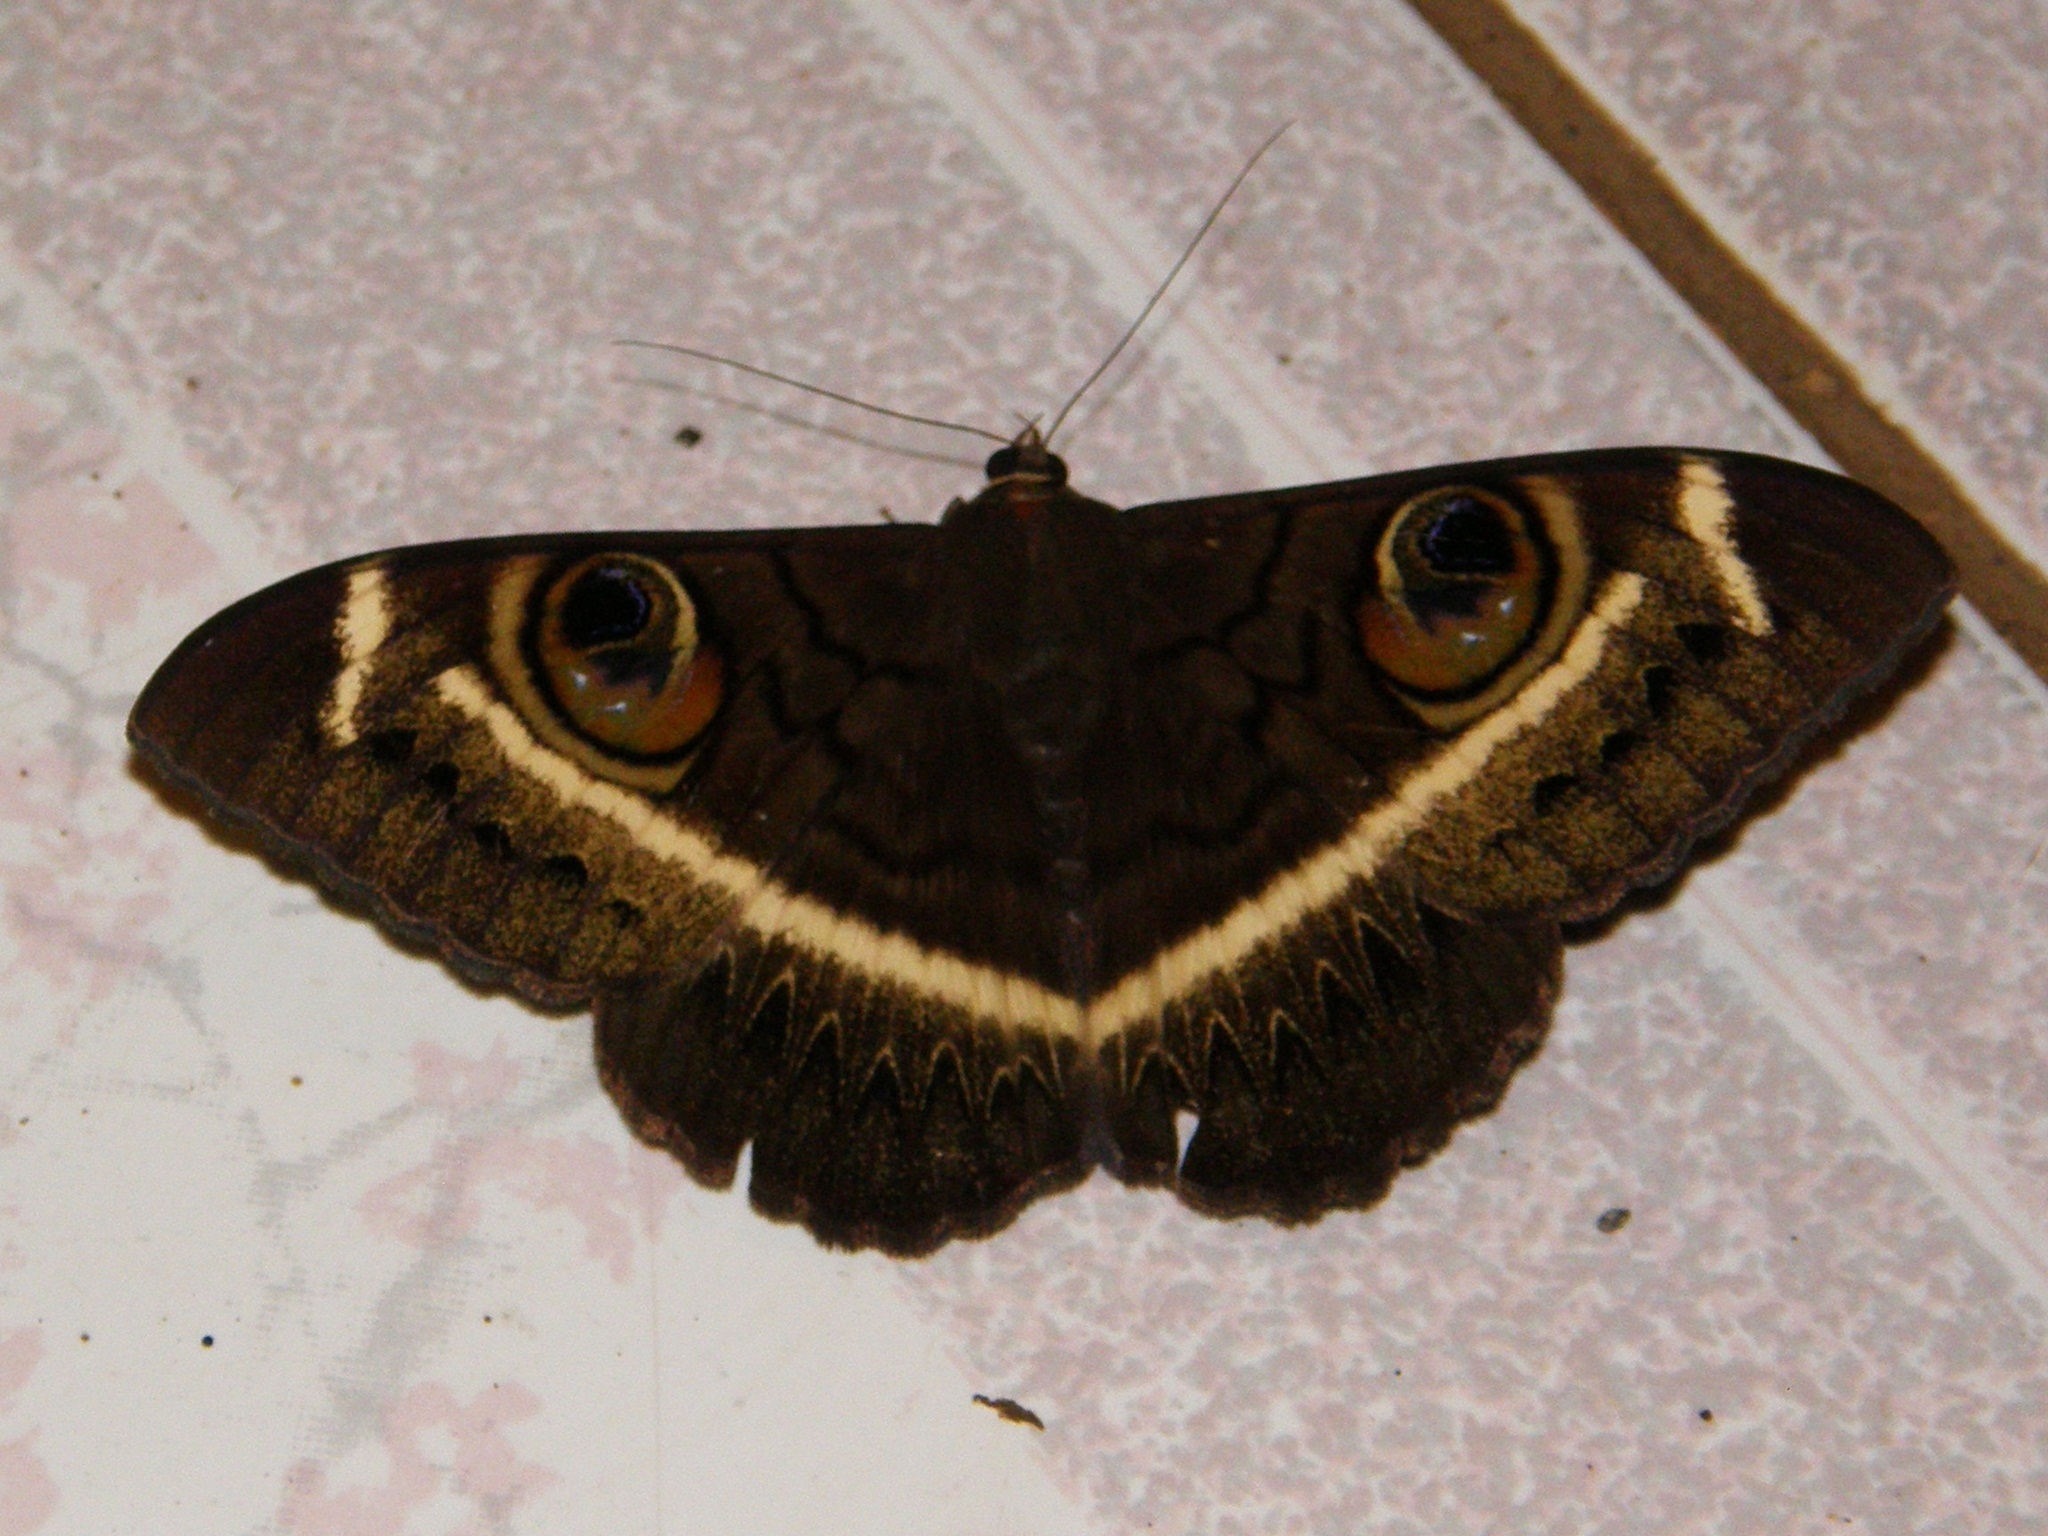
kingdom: Animalia
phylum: Arthropoda
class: Insecta
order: Lepidoptera
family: Erebidae
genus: Cyligramma
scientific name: Cyligramma latona
